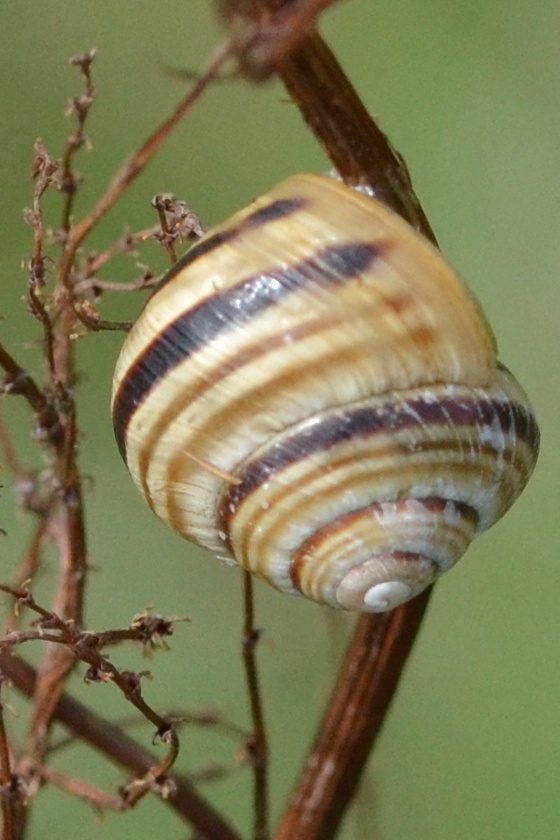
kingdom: Animalia
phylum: Mollusca
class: Gastropoda
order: Stylommatophora
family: Helicidae
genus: Caucasotachea
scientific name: Caucasotachea vindobonensis
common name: European helicid land snail
